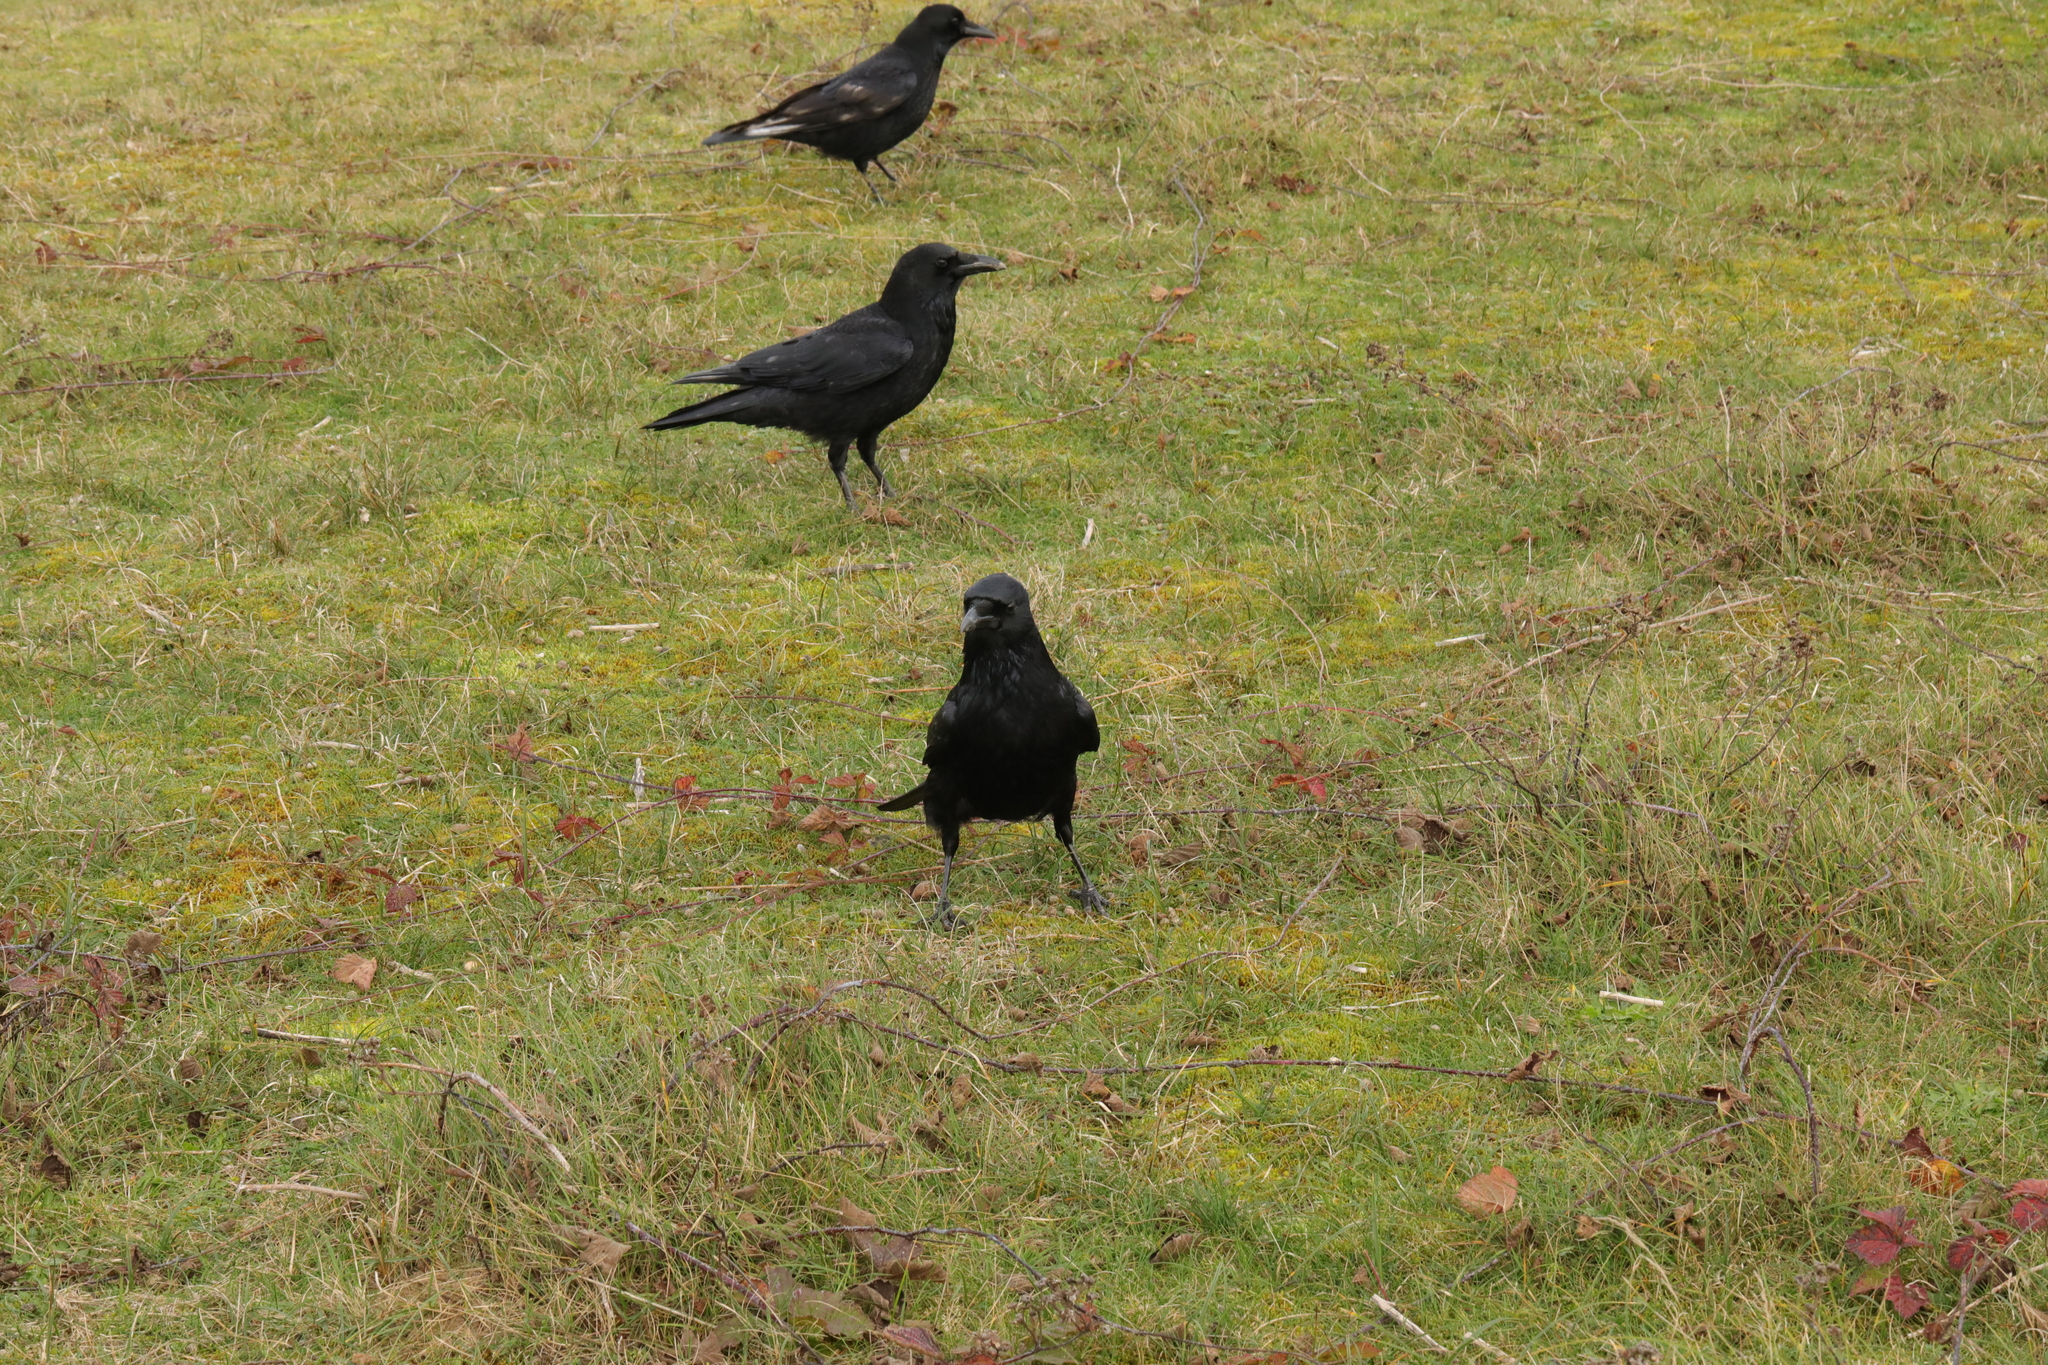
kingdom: Animalia
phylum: Chordata
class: Aves
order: Passeriformes
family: Corvidae
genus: Corvus
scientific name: Corvus corone
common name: Carrion crow
